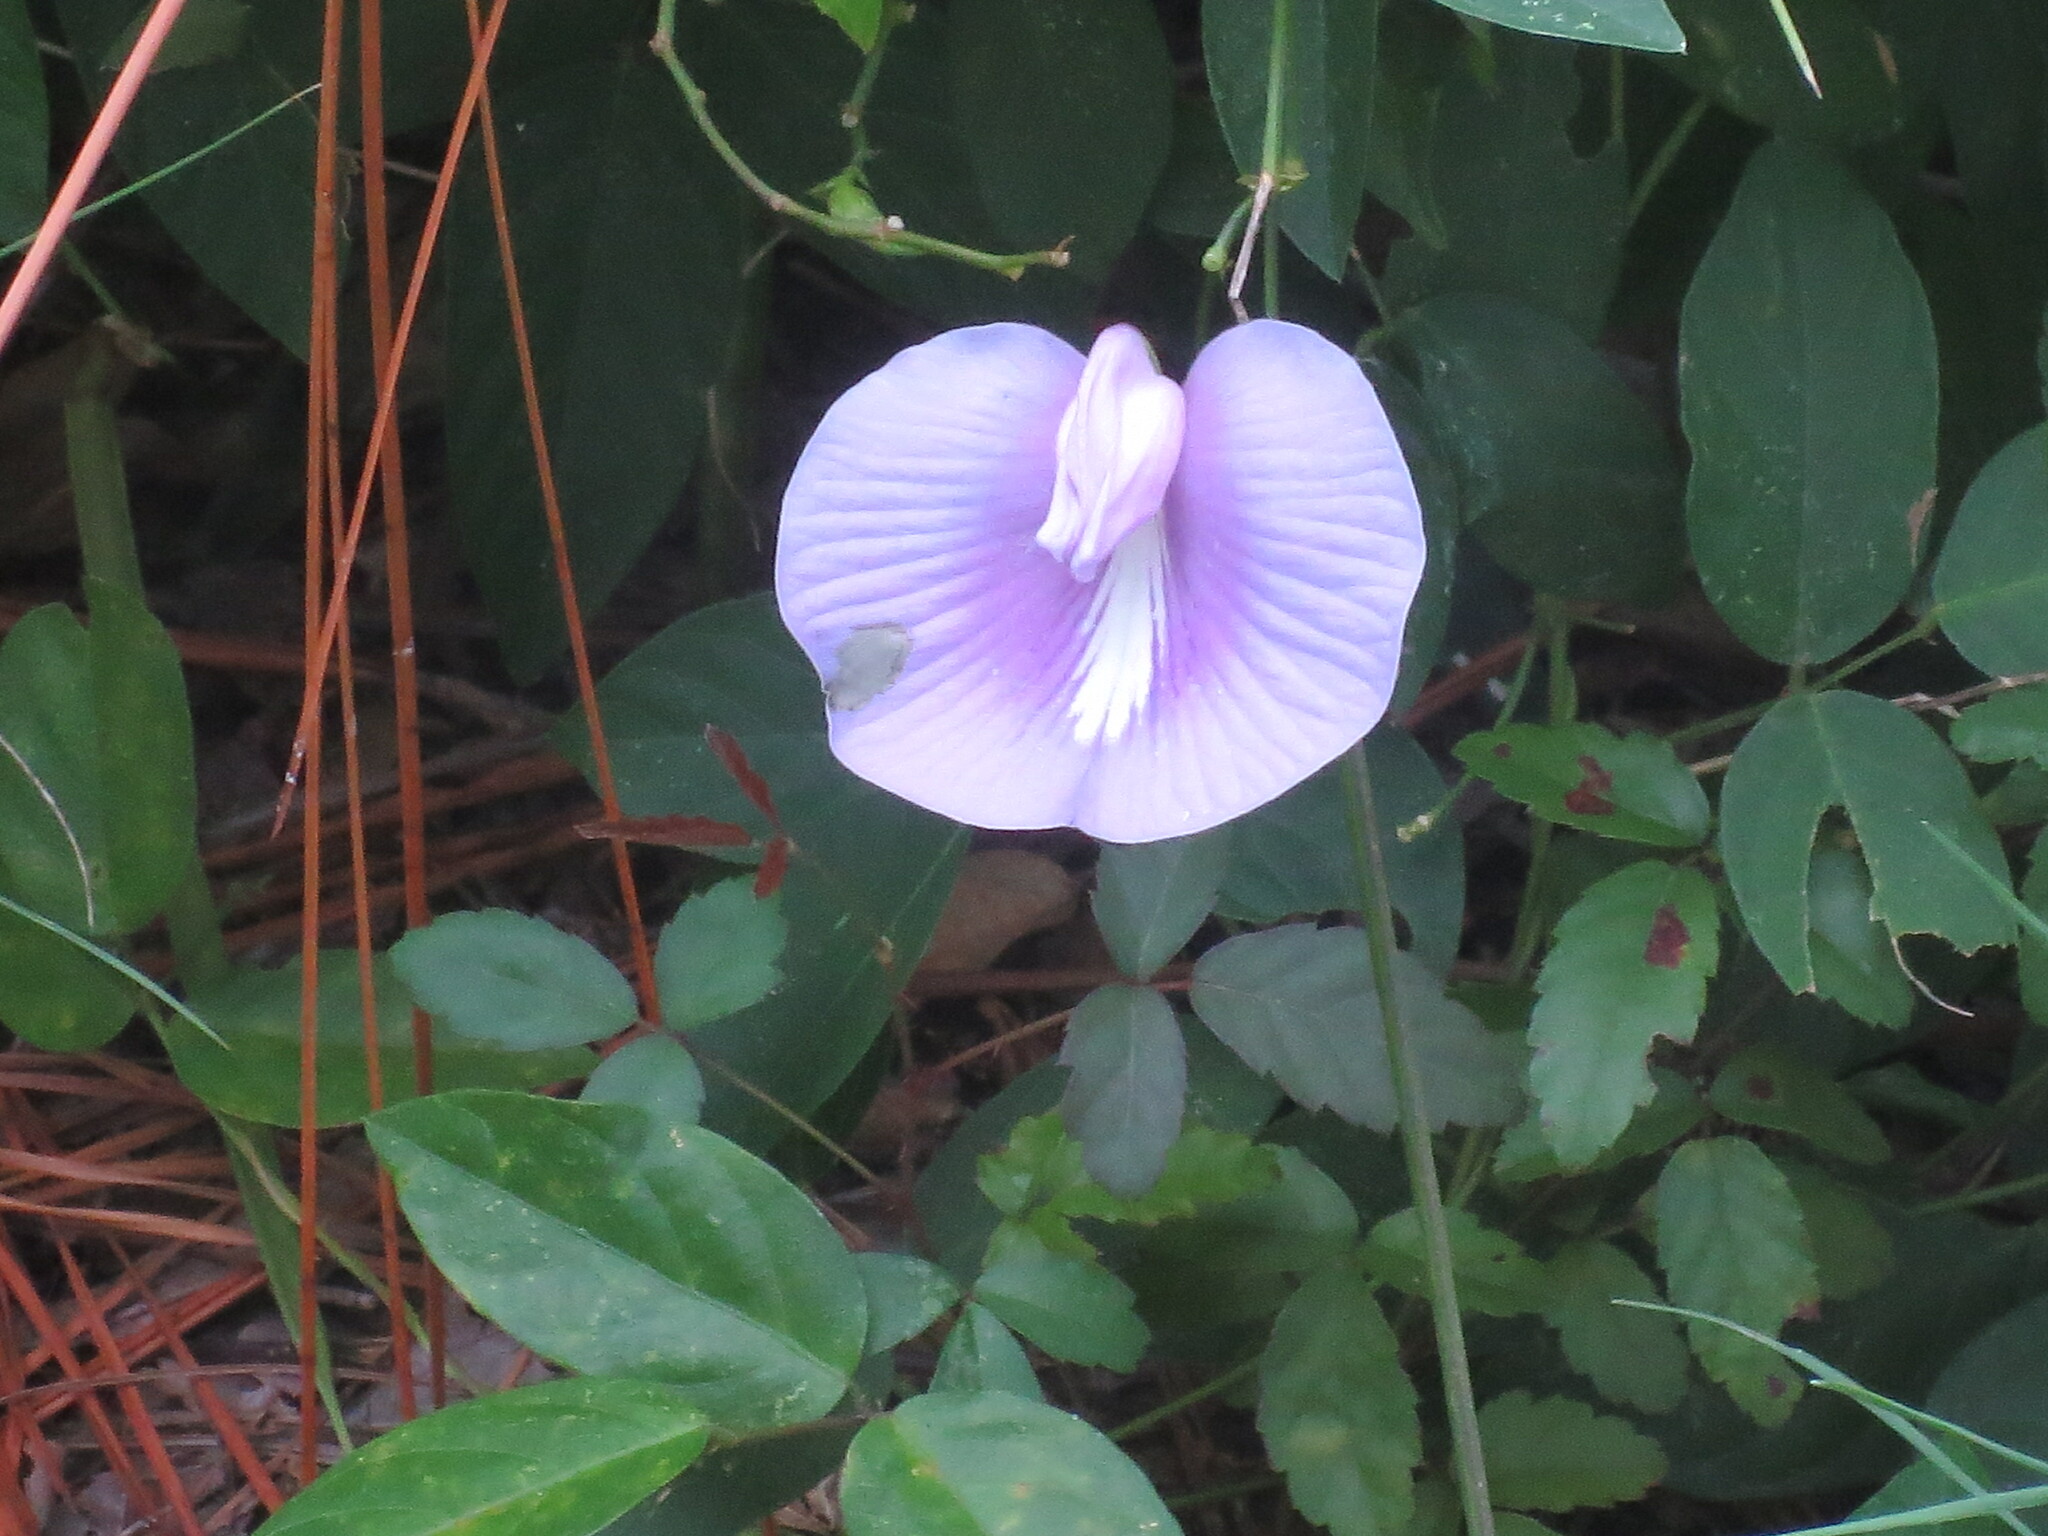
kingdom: Plantae
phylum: Tracheophyta
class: Magnoliopsida
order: Fabales
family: Fabaceae
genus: Centrosema
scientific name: Centrosema virginianum
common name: Butterfly-pea
